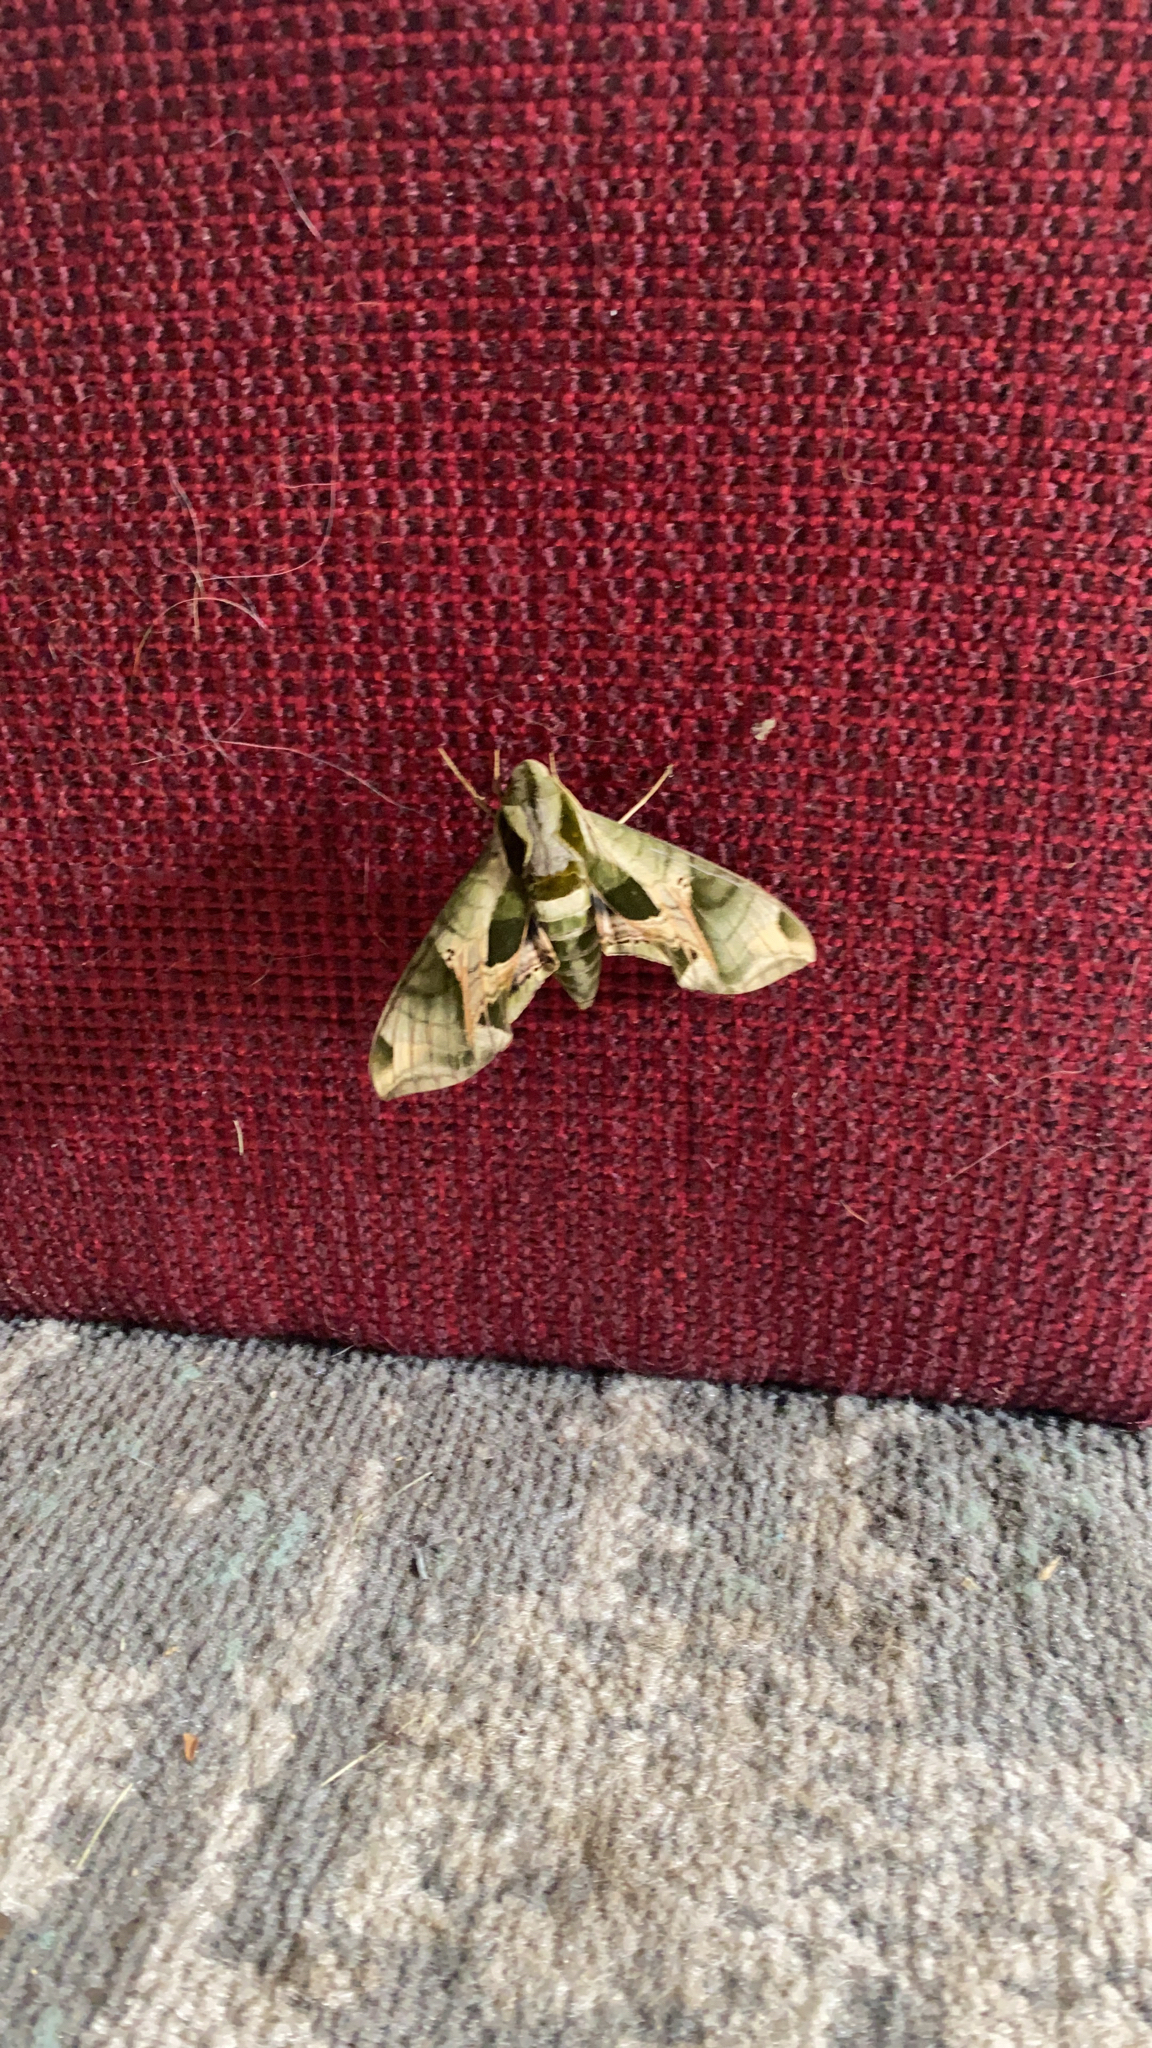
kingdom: Animalia
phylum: Arthropoda
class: Insecta
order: Lepidoptera
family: Sphingidae
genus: Eumorpha
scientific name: Eumorpha pandorus
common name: Pandora sphinx
